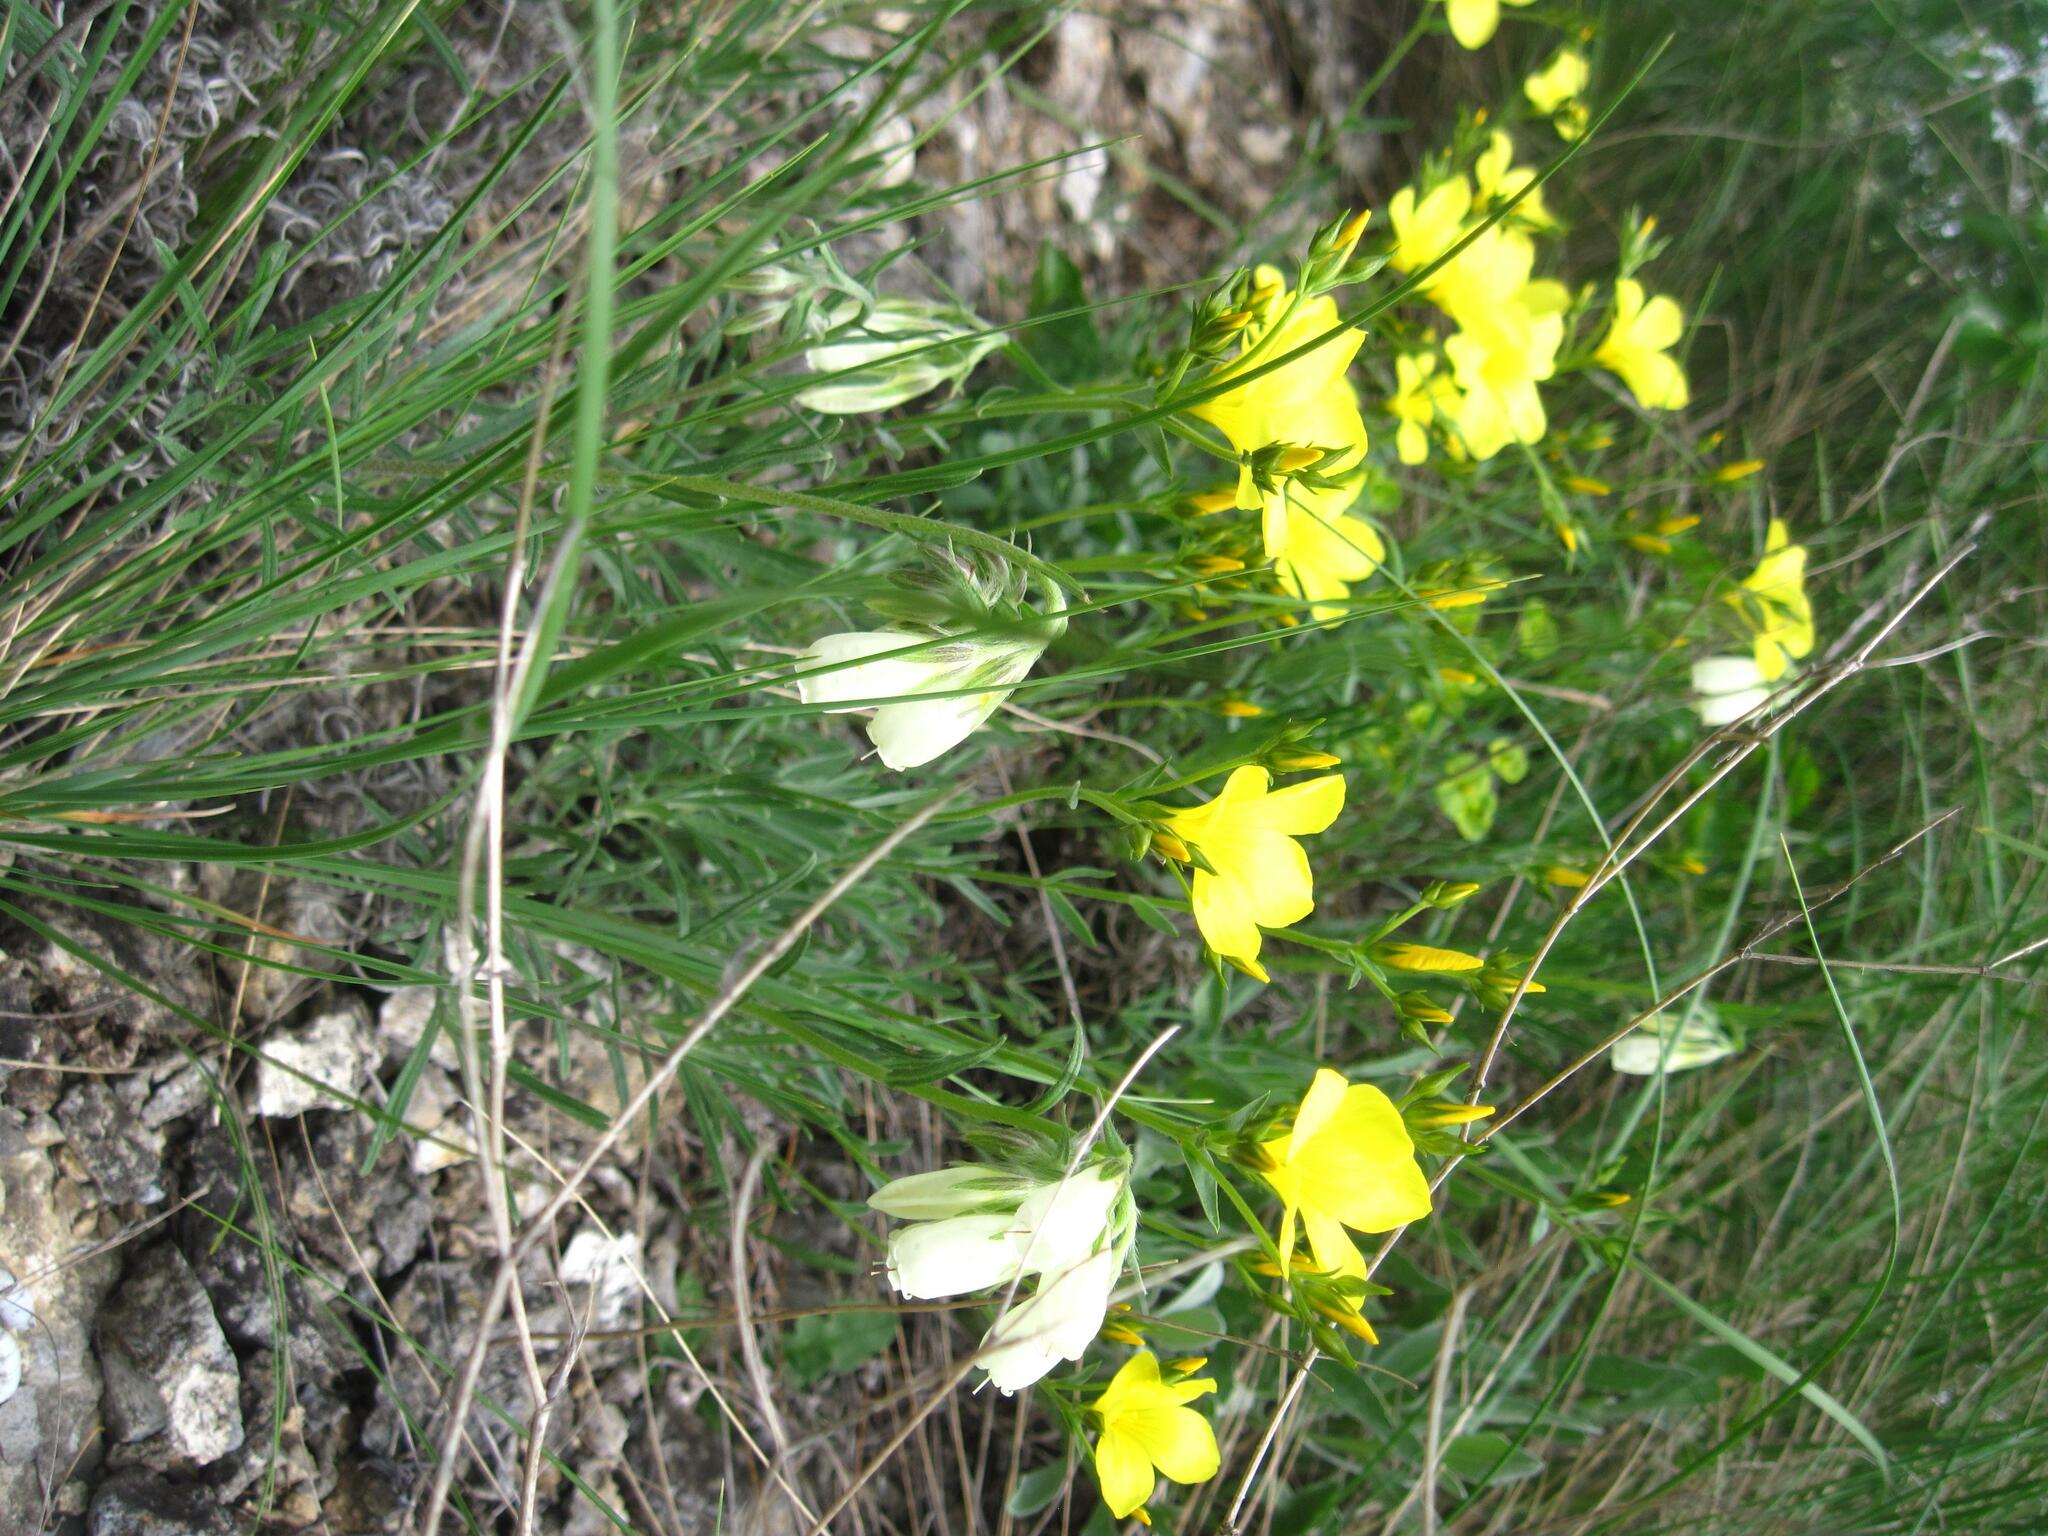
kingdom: Plantae
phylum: Tracheophyta
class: Magnoliopsida
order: Malpighiales
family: Linaceae
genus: Linum
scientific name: Linum pallasianum
